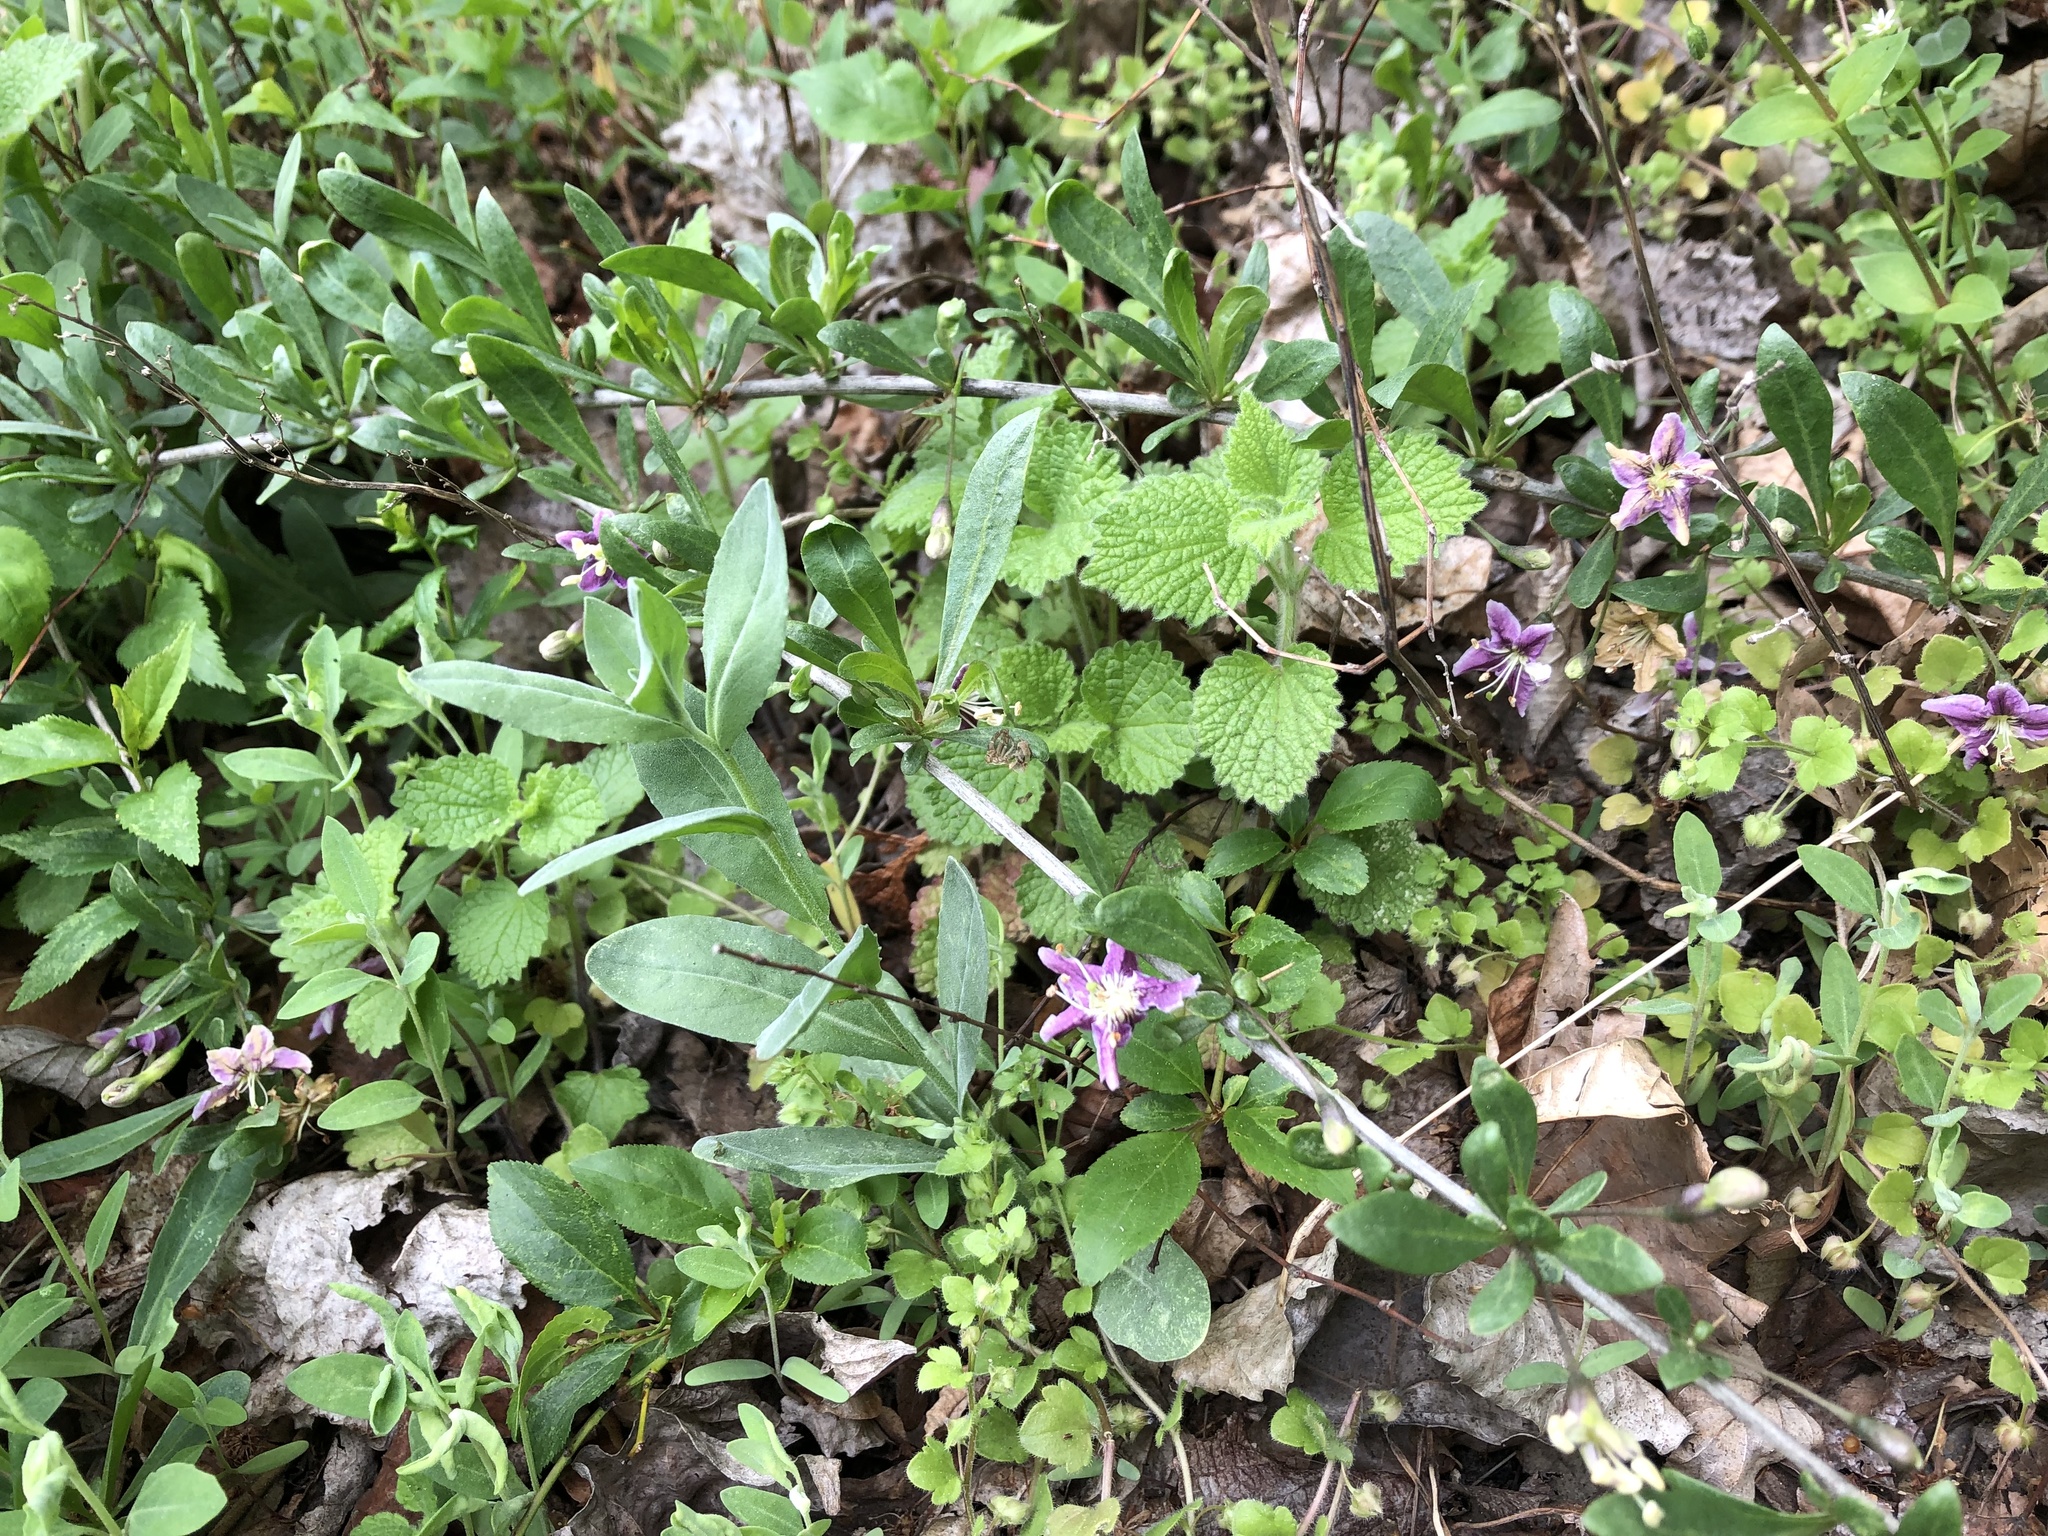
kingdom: Plantae
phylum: Tracheophyta
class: Magnoliopsida
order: Solanales
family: Solanaceae
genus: Lycium
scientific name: Lycium barbarum
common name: Duke of argyll's teaplant
